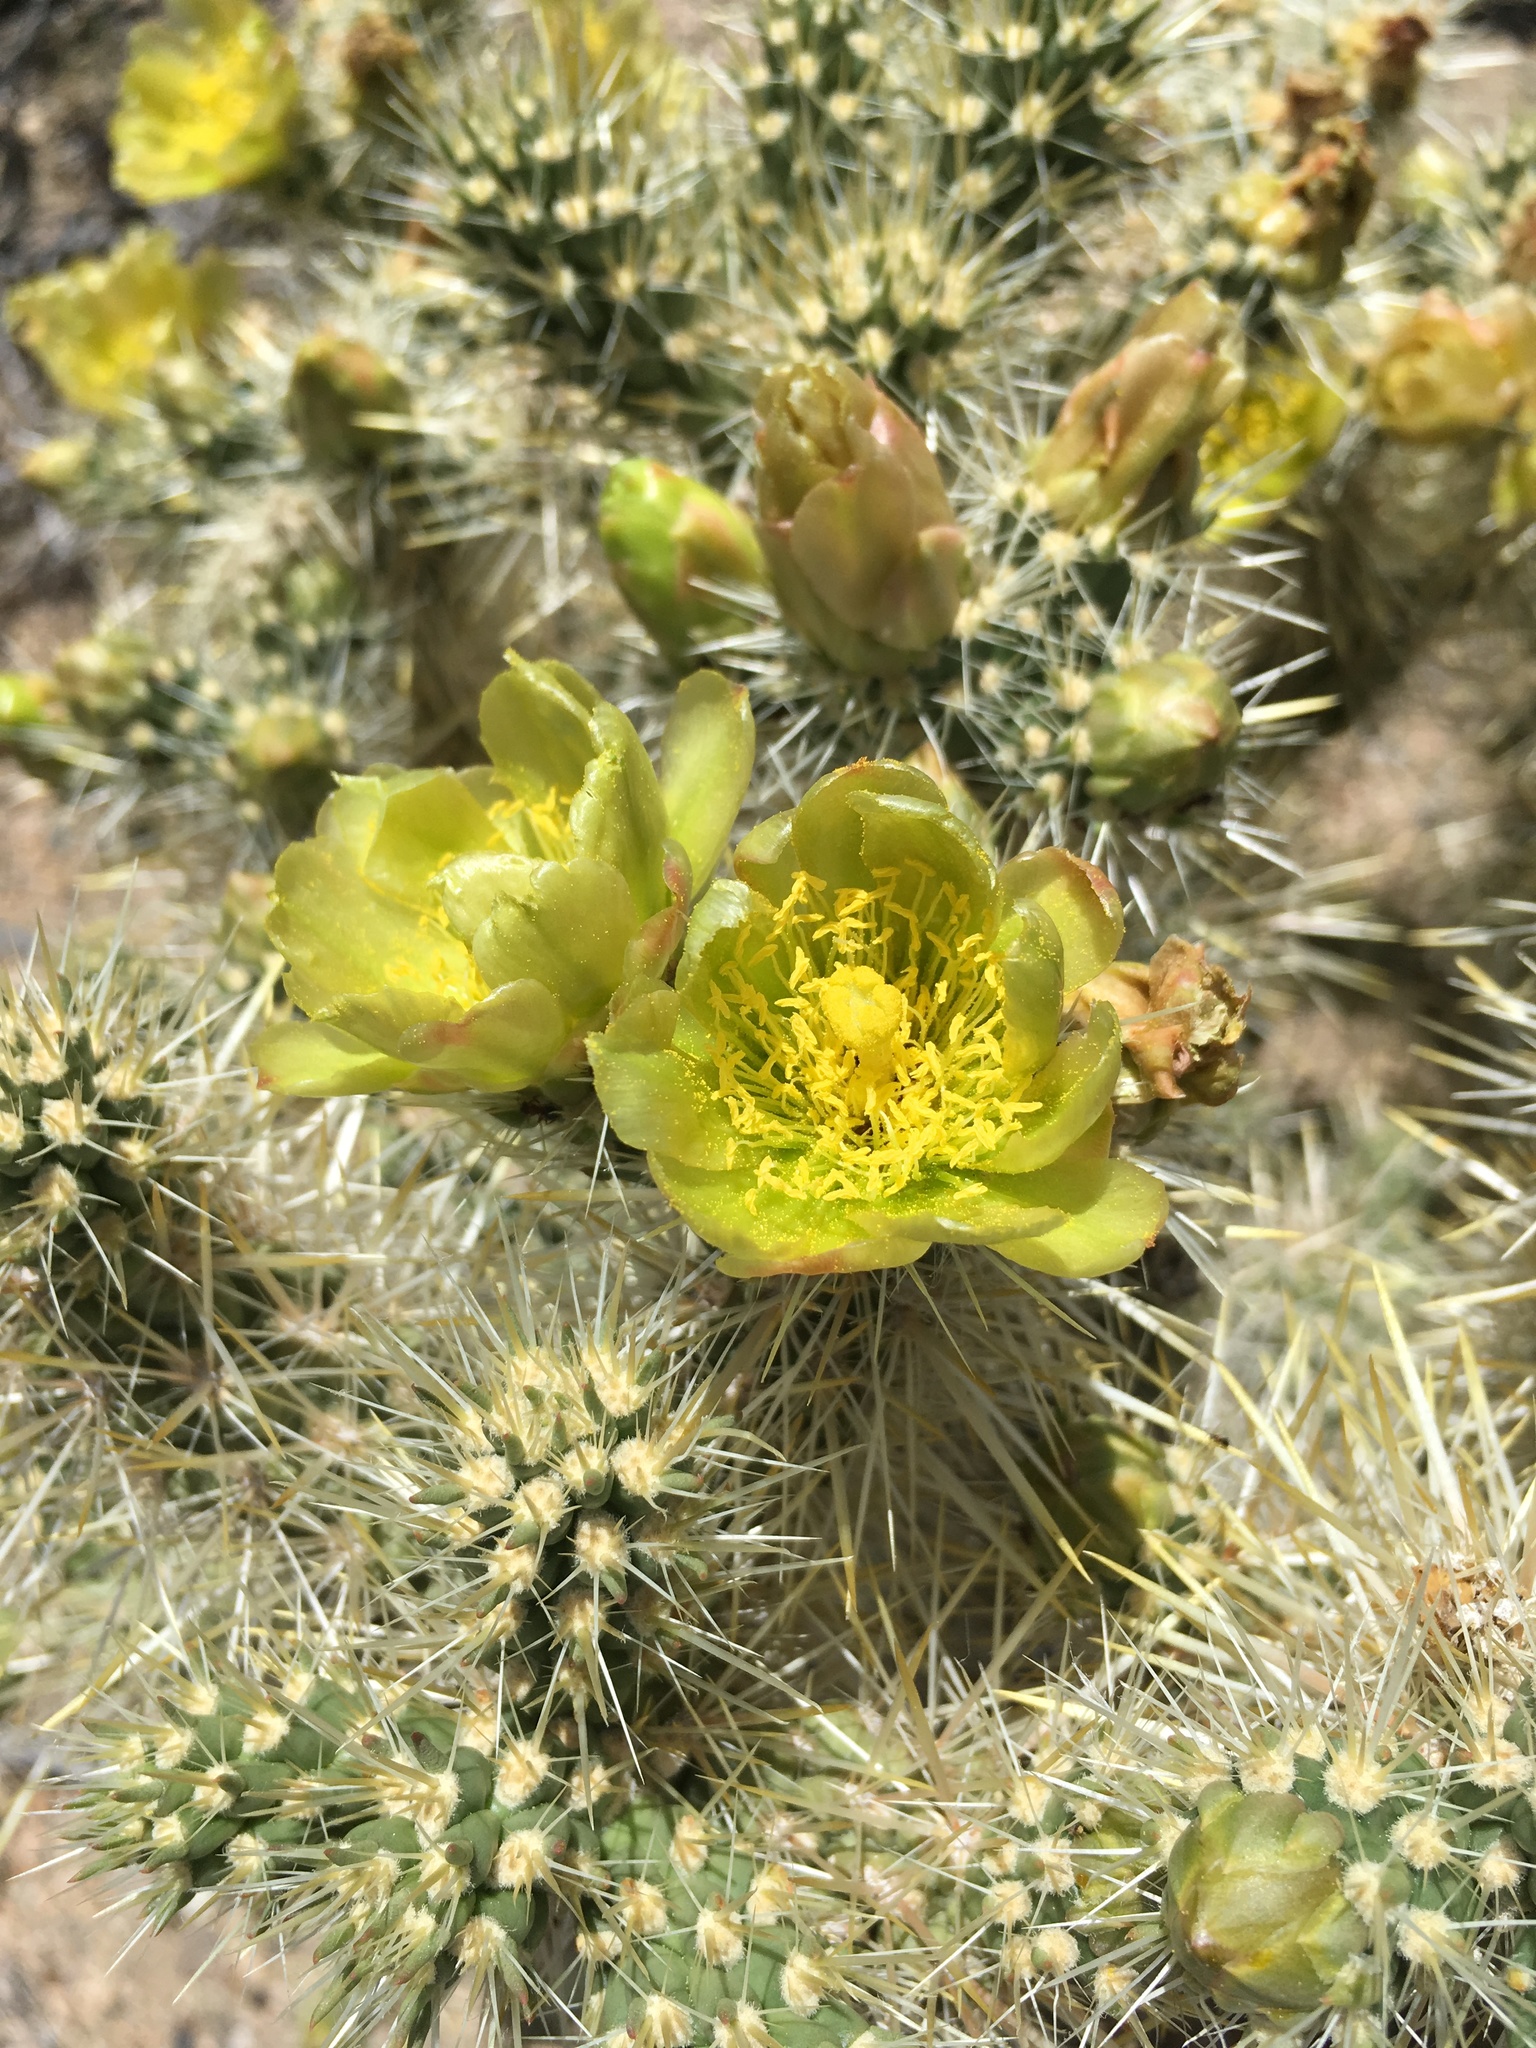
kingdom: Plantae
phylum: Tracheophyta
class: Magnoliopsida
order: Caryophyllales
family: Cactaceae
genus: Cylindropuntia
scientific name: Cylindropuntia echinocarpa
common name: Ground cholla
